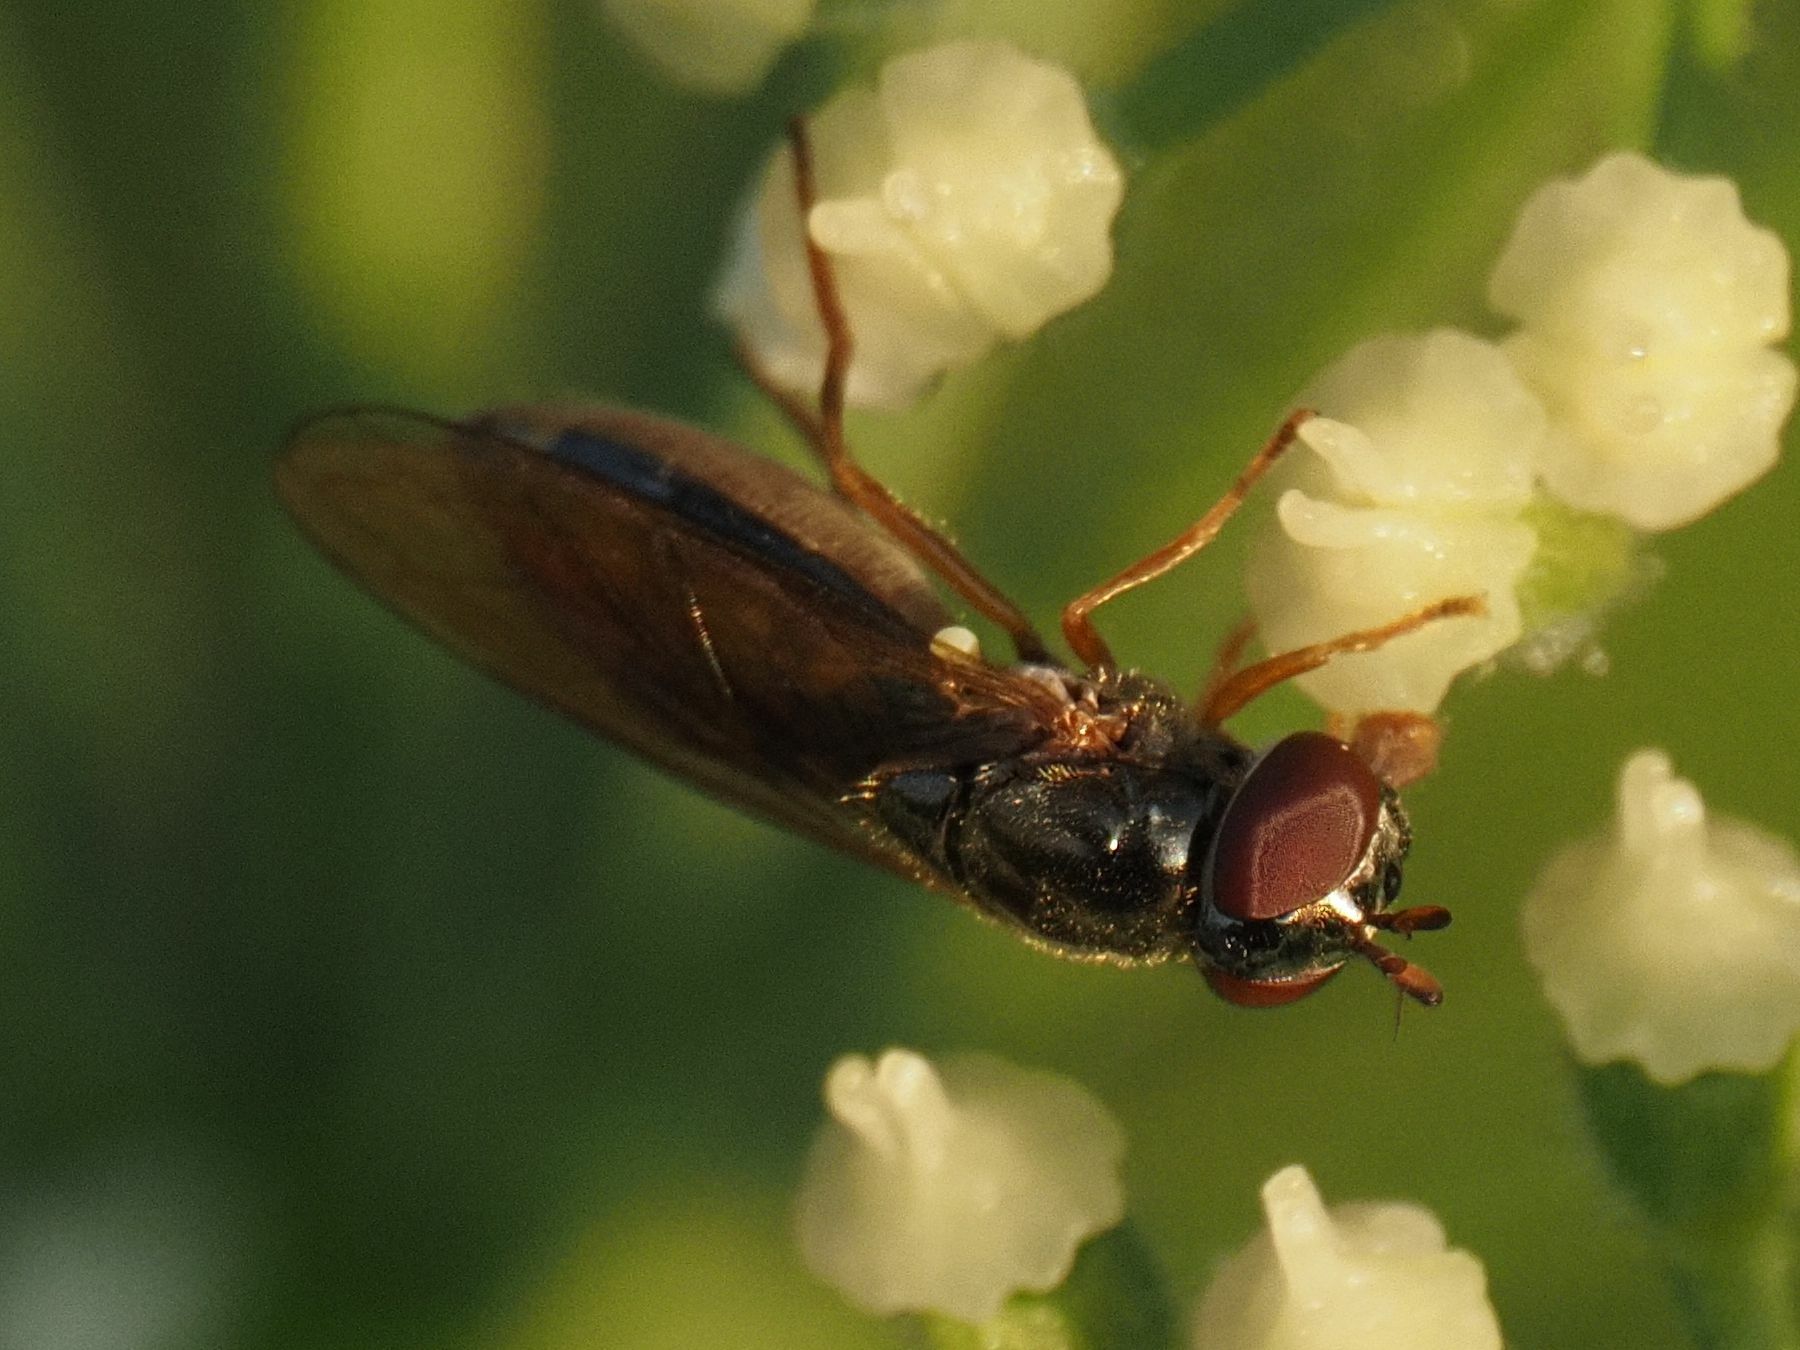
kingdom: Animalia
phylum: Arthropoda
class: Insecta
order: Diptera
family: Syrphidae
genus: Melanostoma
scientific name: Melanostoma mellina
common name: Hover fly
